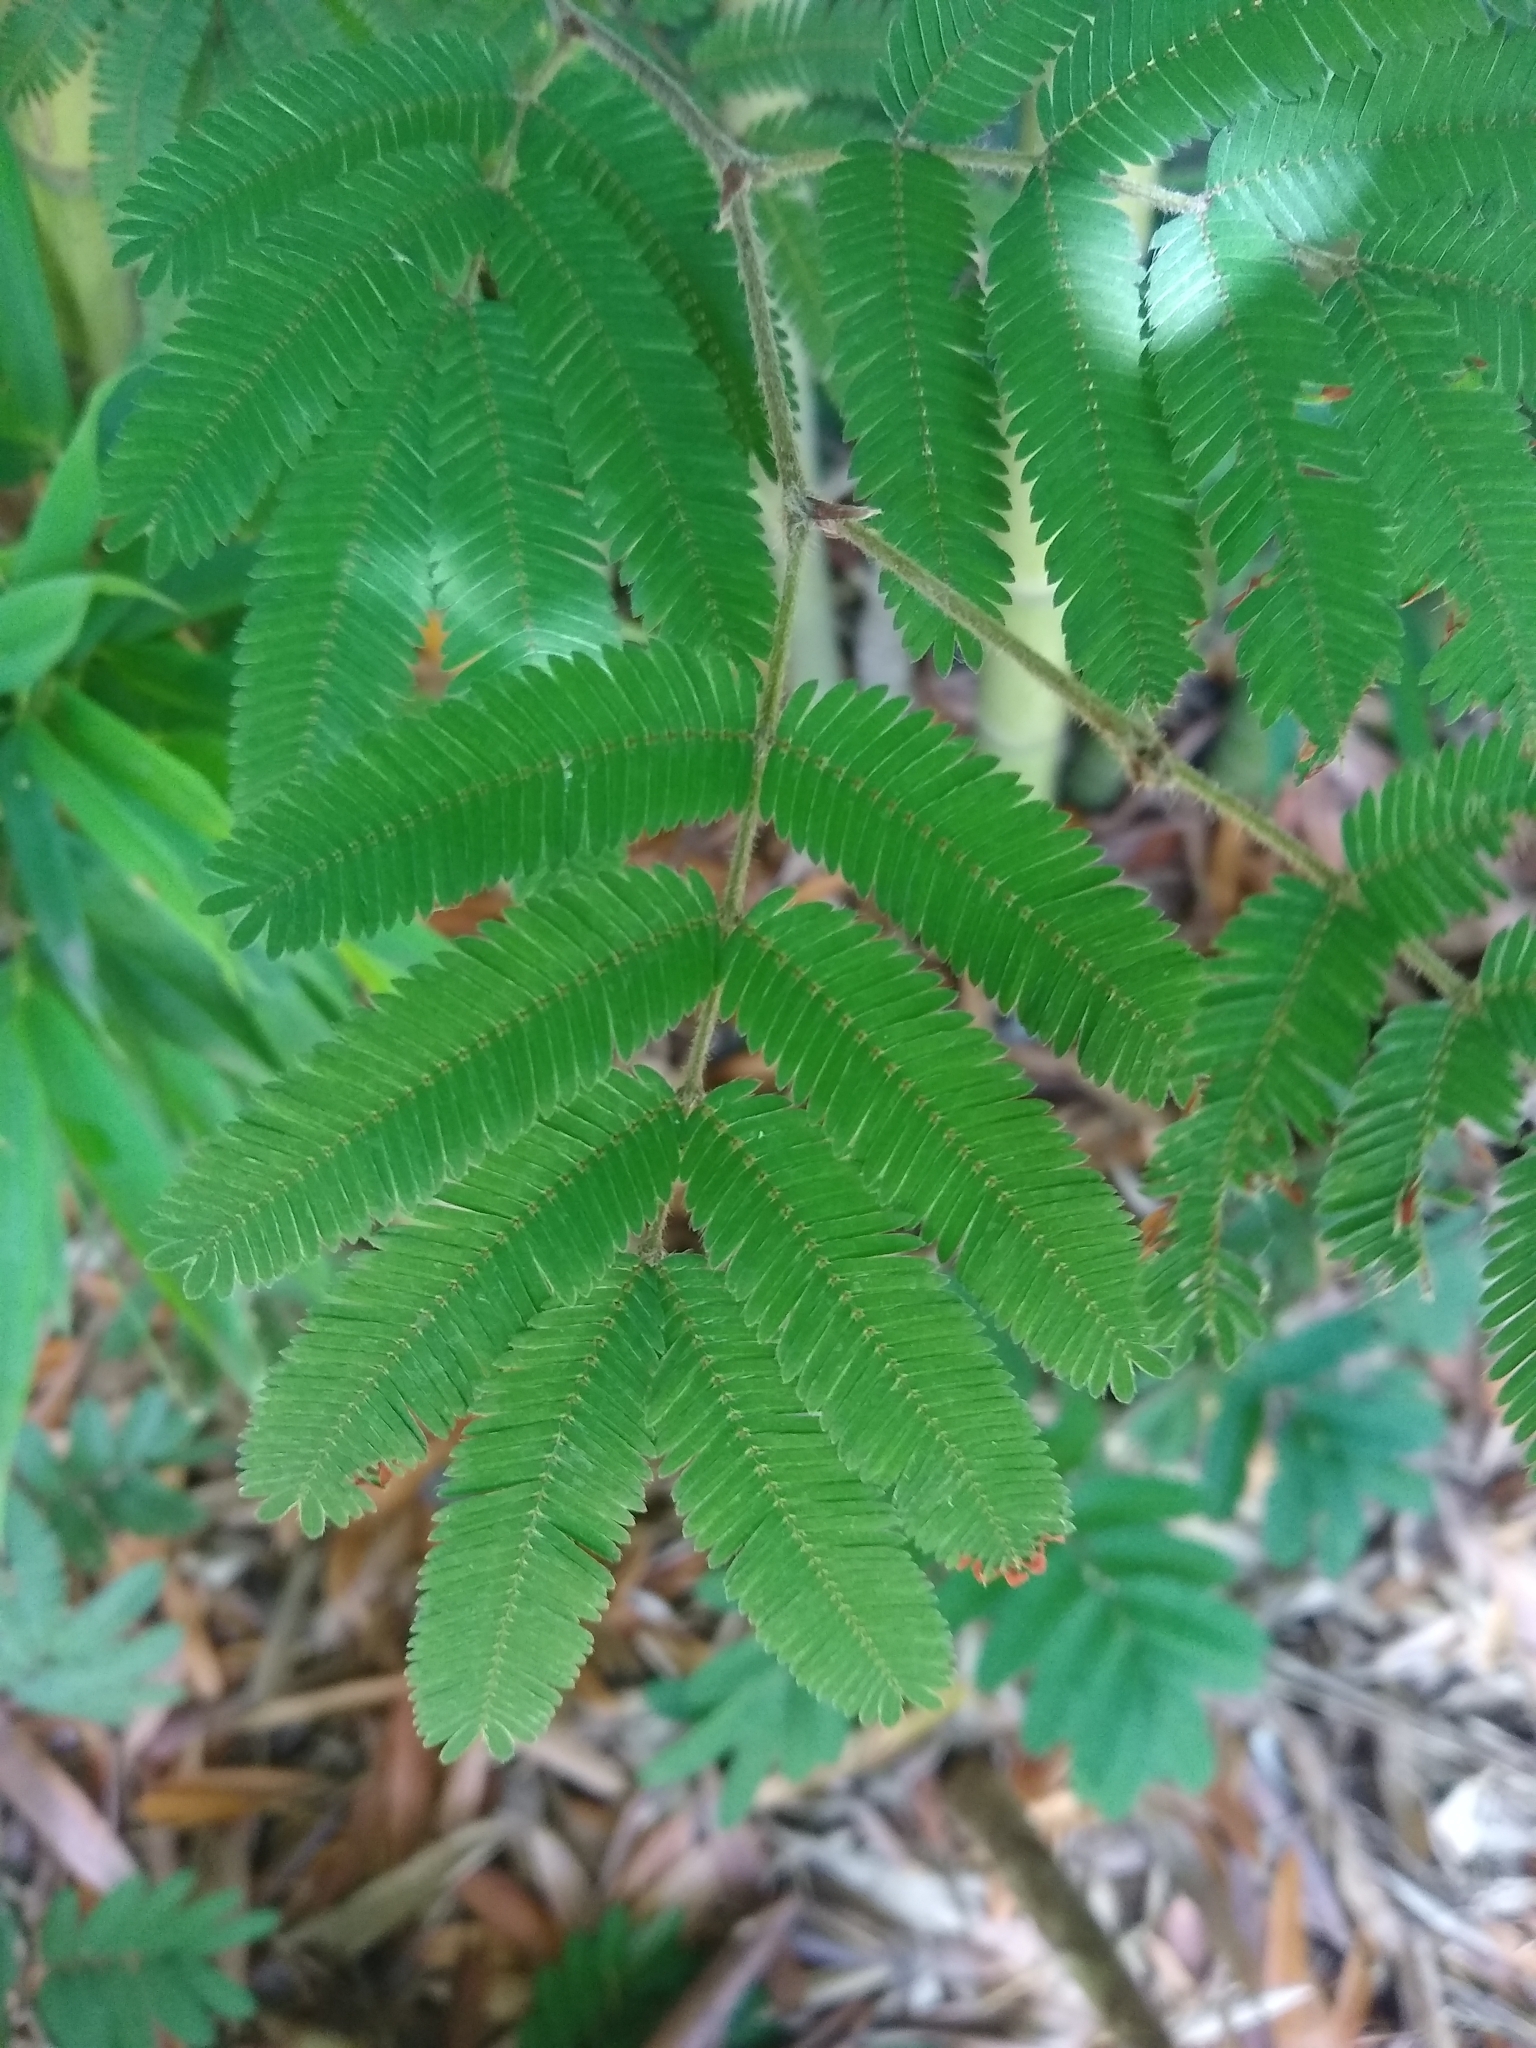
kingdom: Plantae
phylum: Tracheophyta
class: Magnoliopsida
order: Fabales
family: Fabaceae
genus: Calliandra
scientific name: Calliandra tweediei
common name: Mexican flamebush
